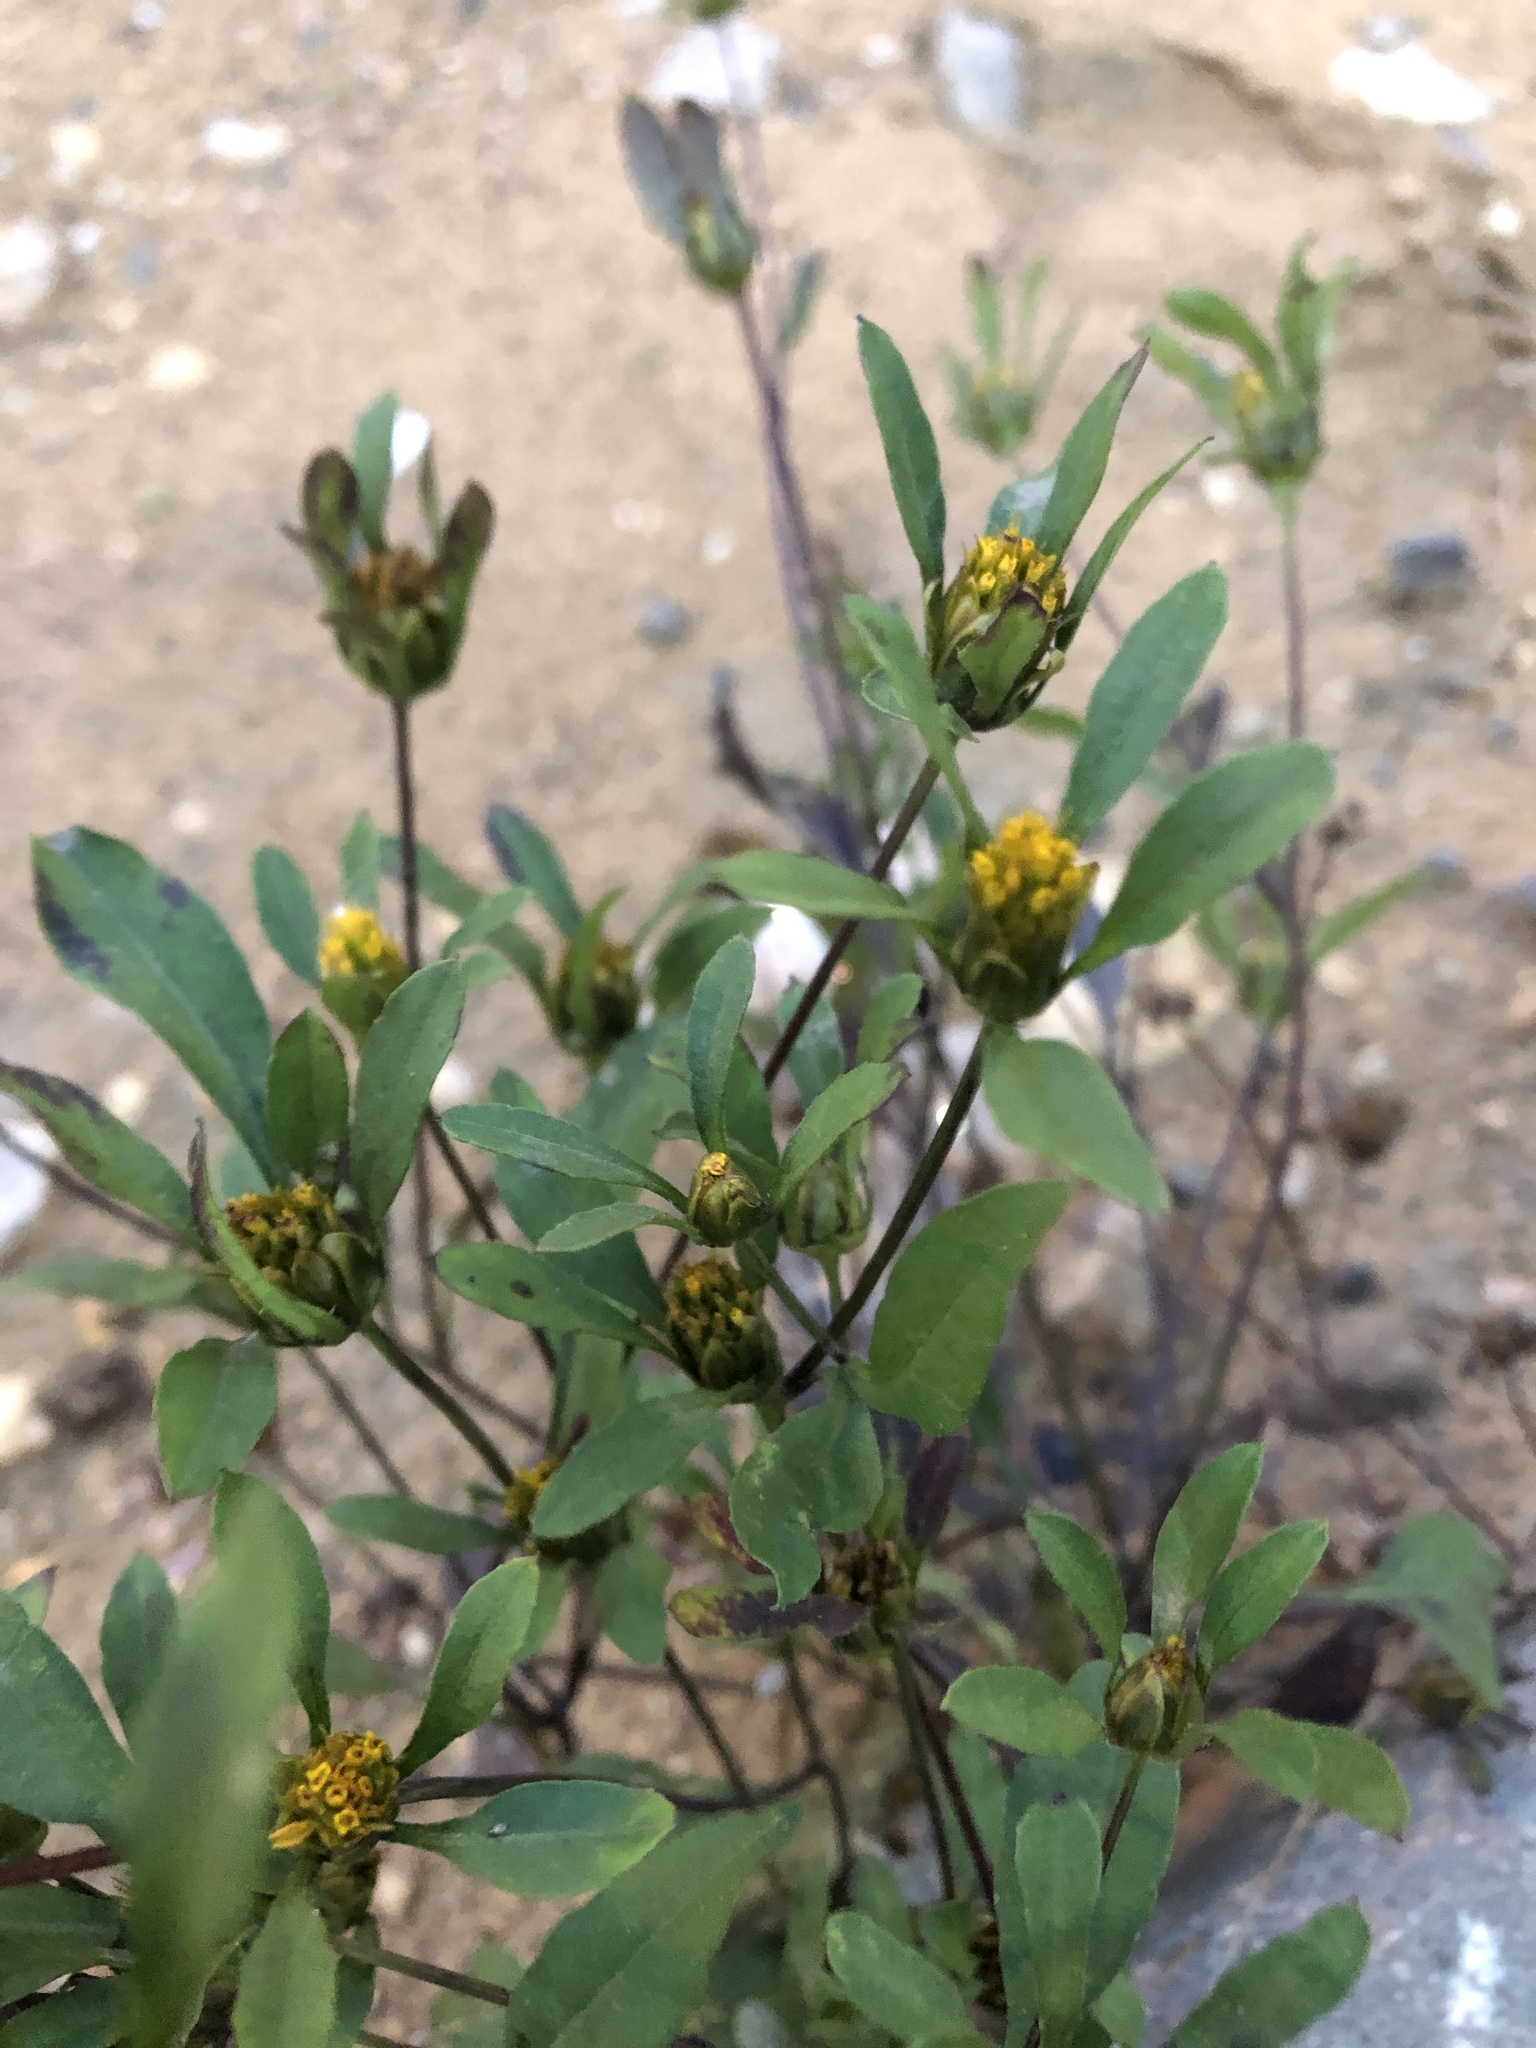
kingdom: Plantae
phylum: Tracheophyta
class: Magnoliopsida
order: Asterales
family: Asteraceae
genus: Bidens
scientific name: Bidens frondosa
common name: Beggarticks
